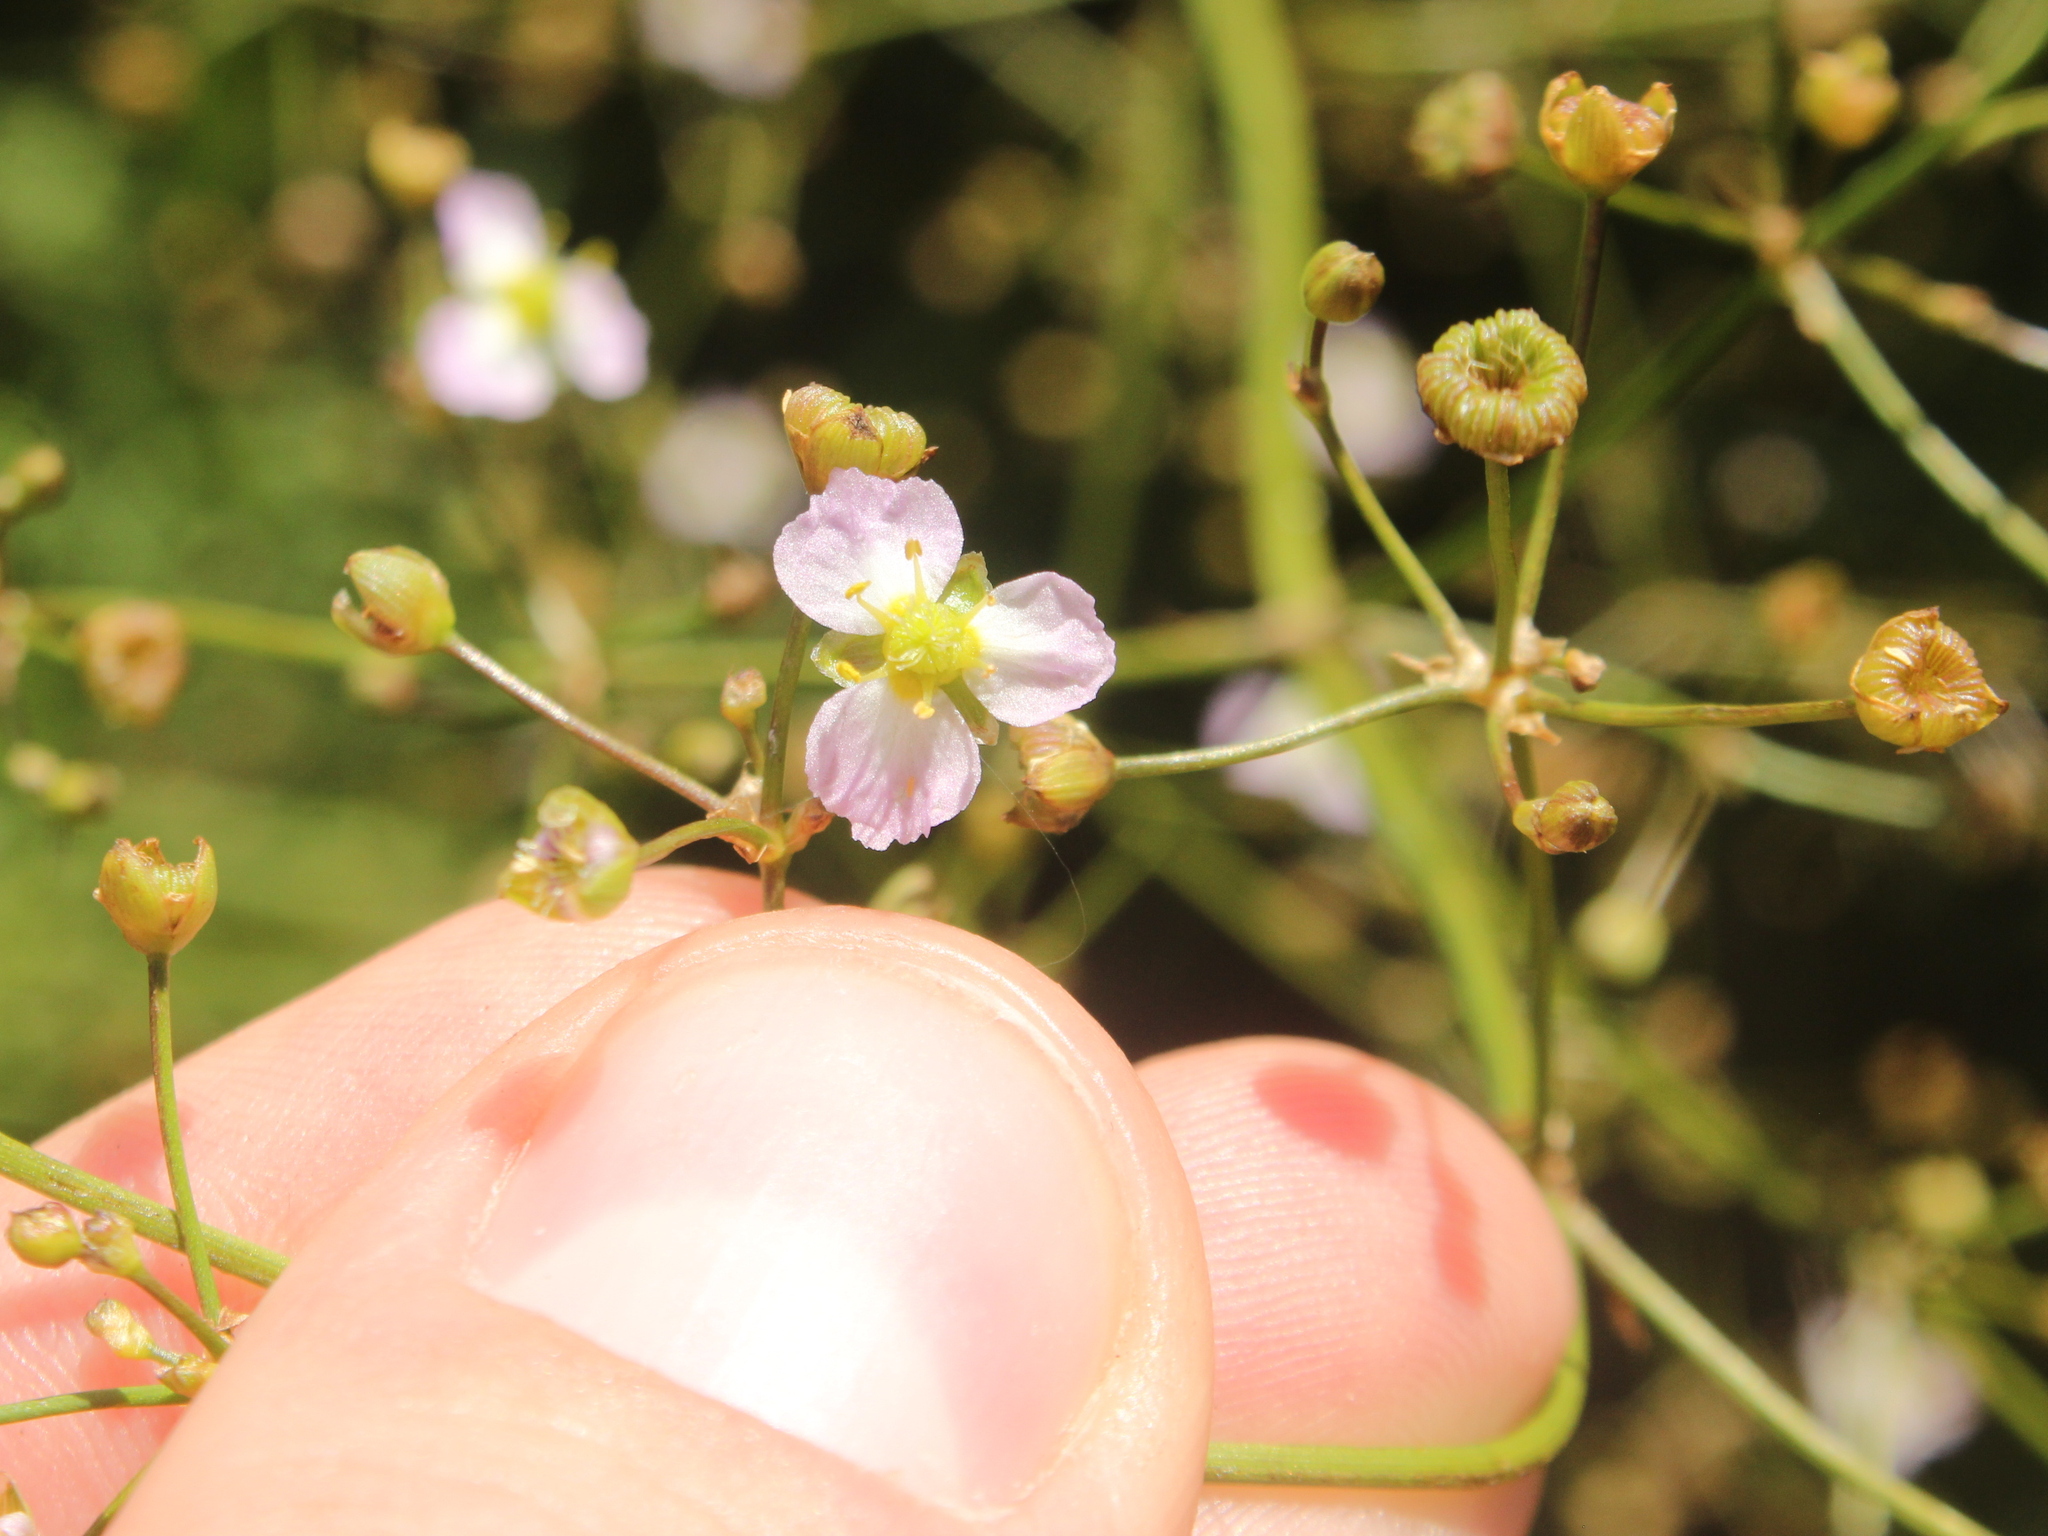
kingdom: Plantae
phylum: Tracheophyta
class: Liliopsida
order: Alismatales
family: Alismataceae
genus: Alisma
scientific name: Alisma plantago-aquatica
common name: Water-plantain
